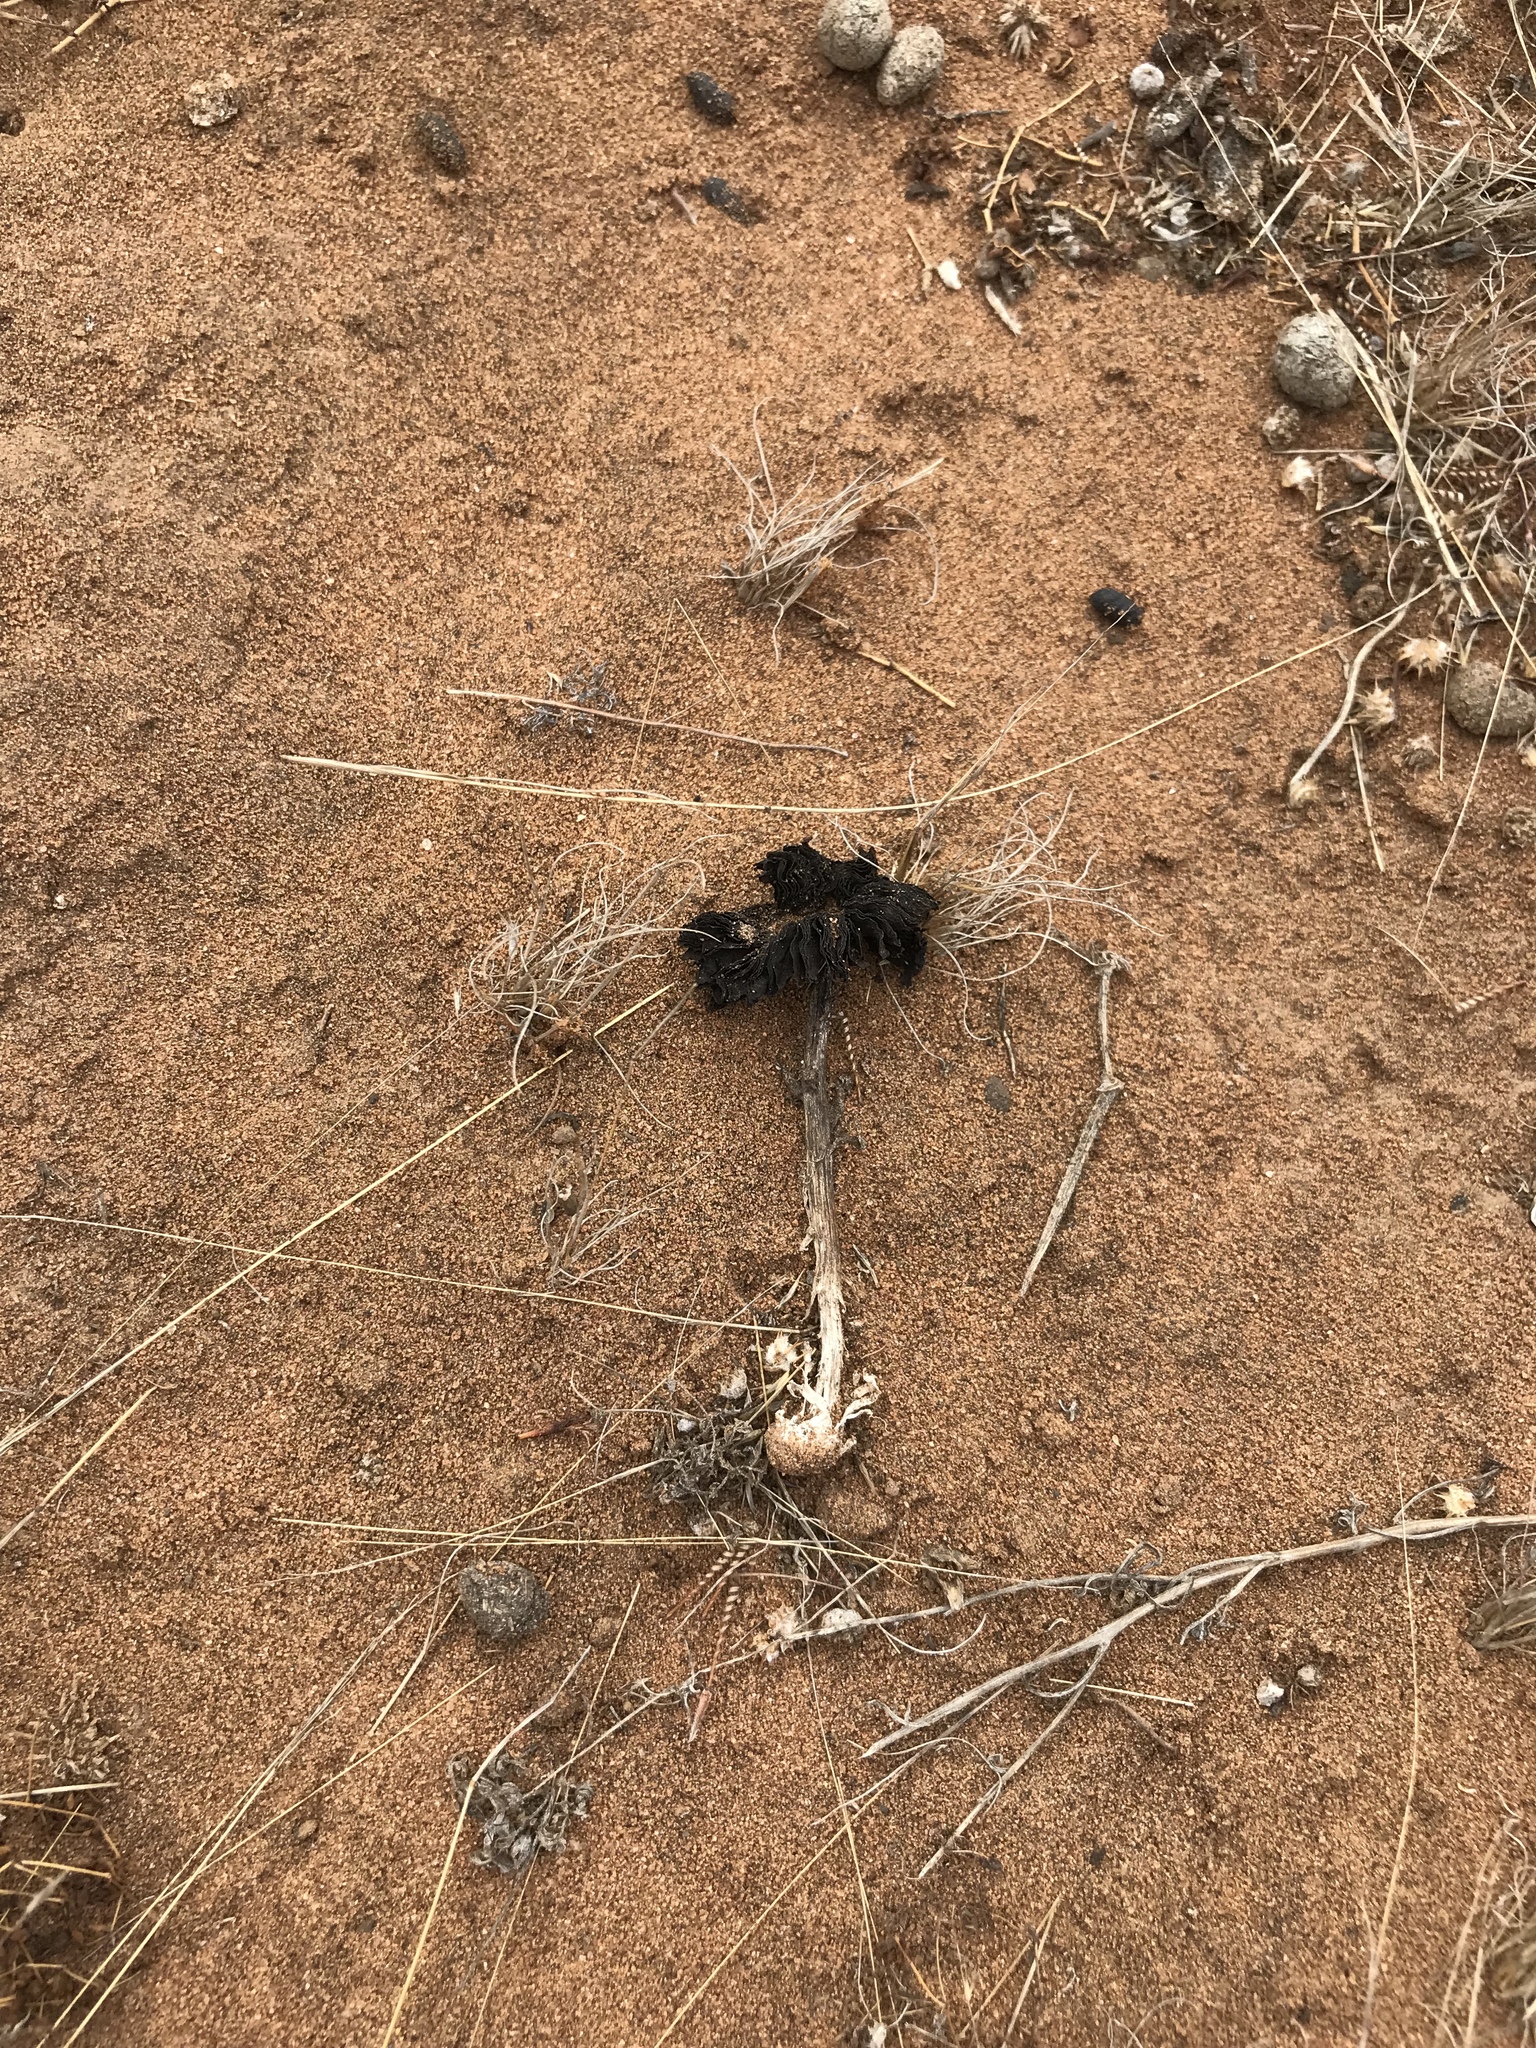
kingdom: Fungi
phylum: Basidiomycota
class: Agaricomycetes
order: Agaricales
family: Agaricaceae
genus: Montagnea
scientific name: Montagnea arenaria
